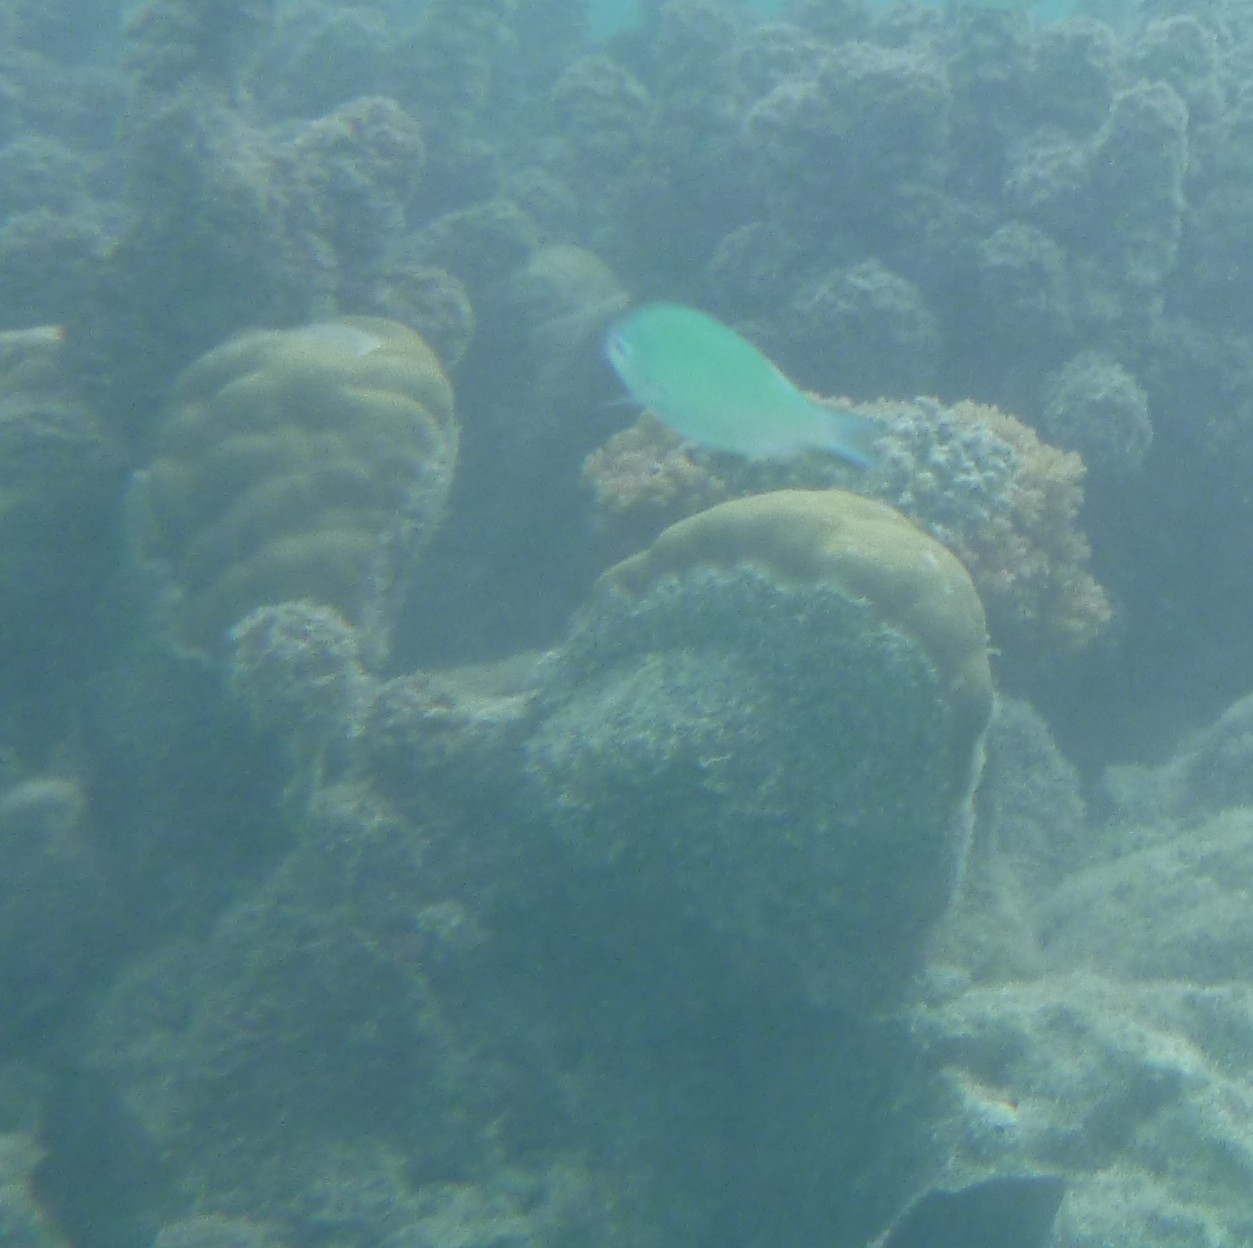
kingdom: Animalia
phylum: Chordata
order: Perciformes
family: Pomacentridae
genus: Chromis
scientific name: Chromis viridis
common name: Blue-green chromis
